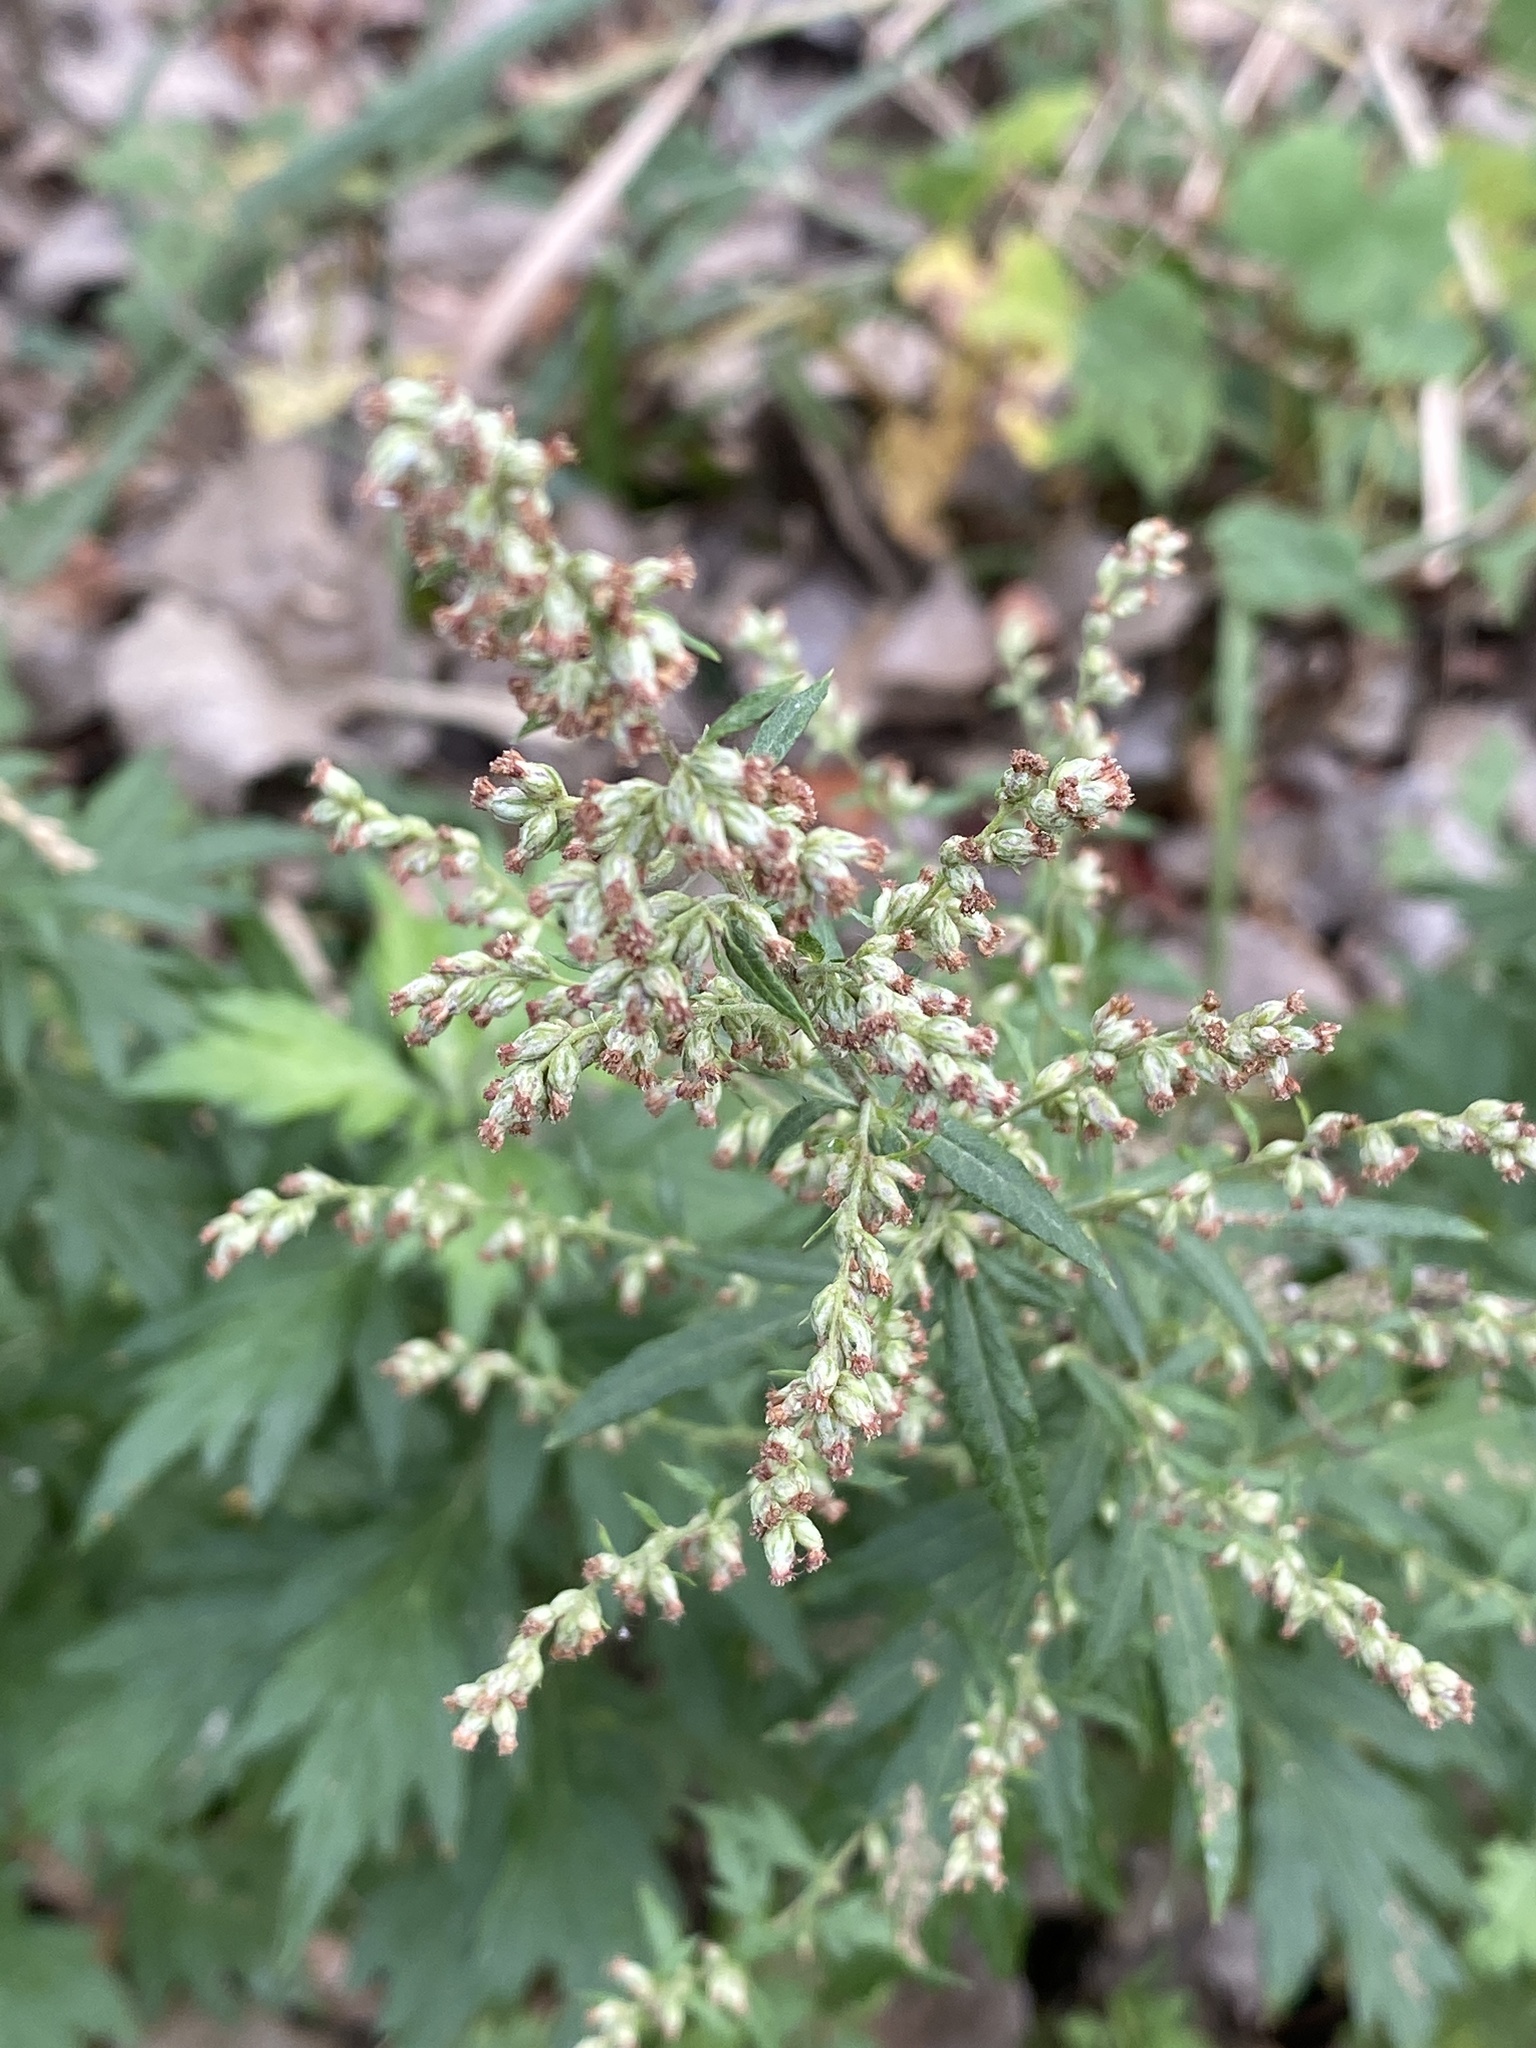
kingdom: Plantae
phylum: Tracheophyta
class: Magnoliopsida
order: Asterales
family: Asteraceae
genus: Artemisia
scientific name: Artemisia vulgaris
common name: Mugwort
